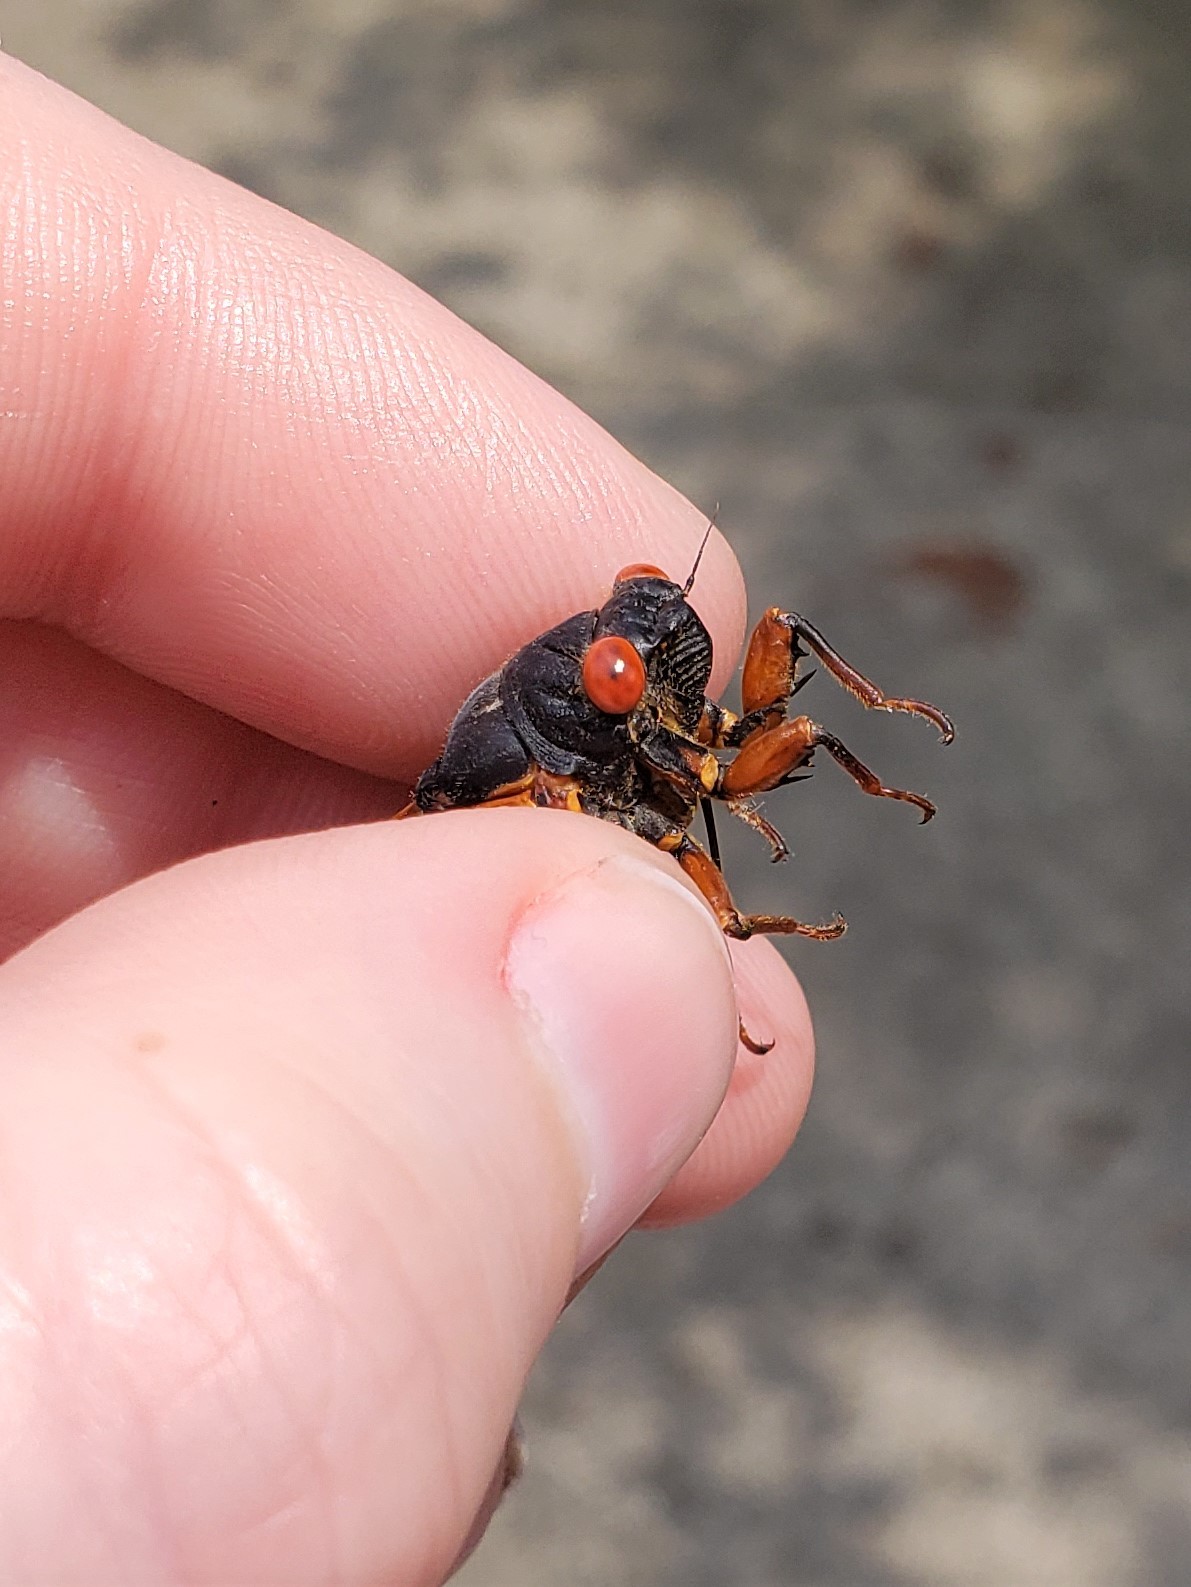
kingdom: Animalia
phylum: Arthropoda
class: Insecta
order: Hemiptera
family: Cicadidae
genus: Magicicada
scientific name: Magicicada septendecula
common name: Decula periodical cicada
